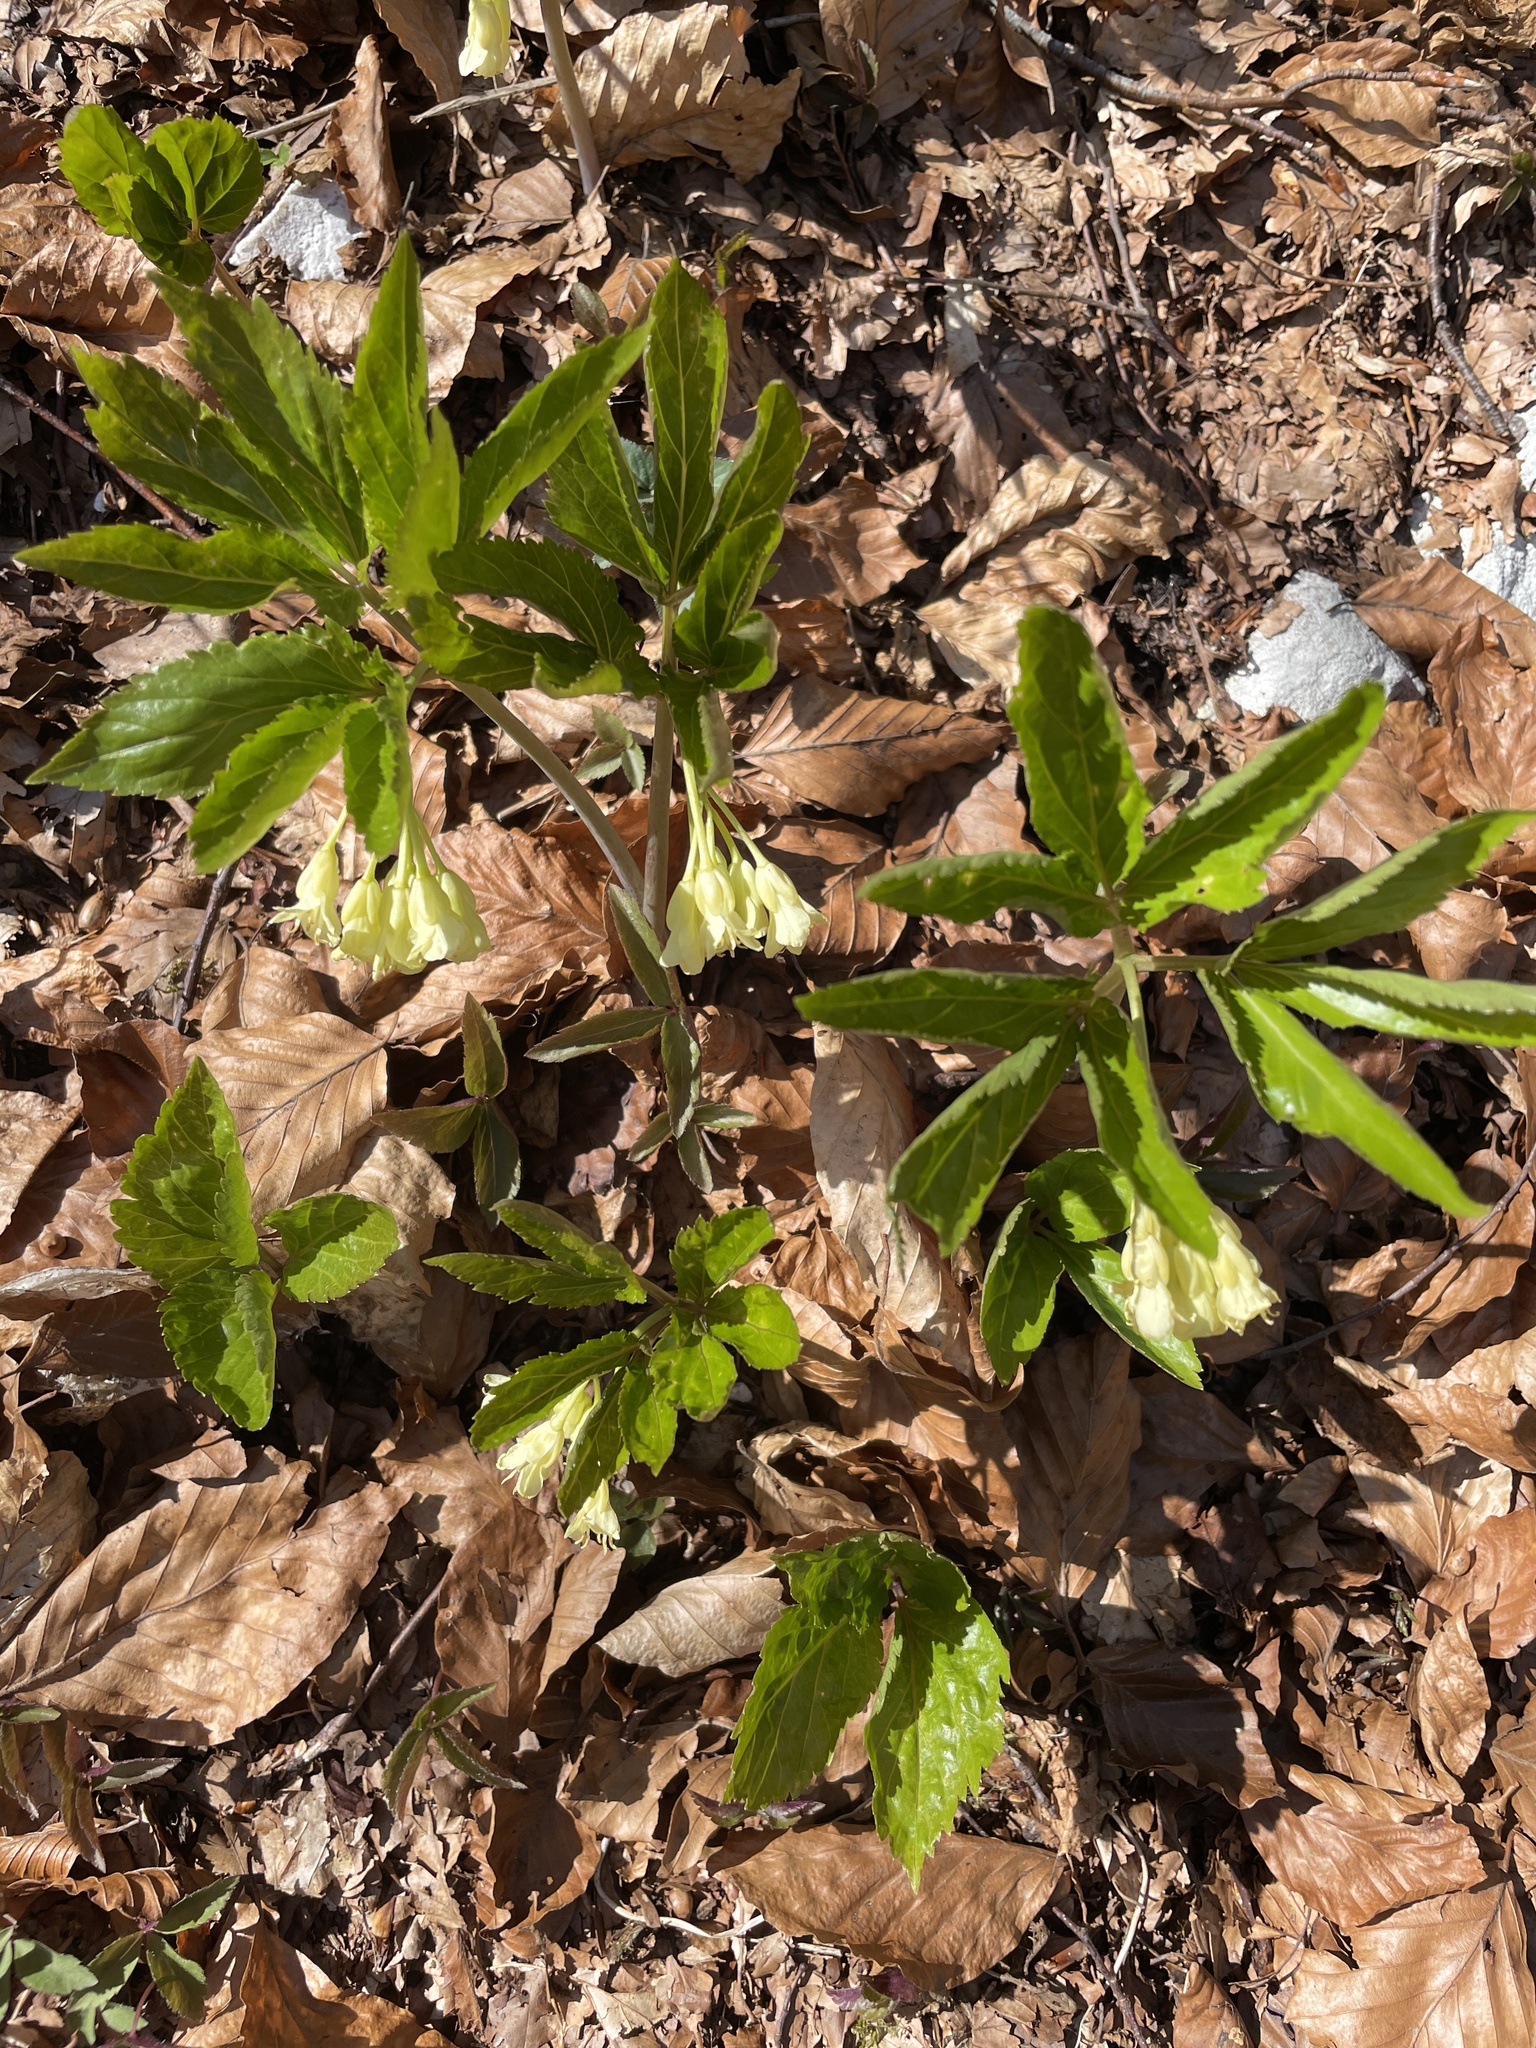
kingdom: Plantae
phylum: Tracheophyta
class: Magnoliopsida
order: Brassicales
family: Brassicaceae
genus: Cardamine
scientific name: Cardamine enneaphyllos
